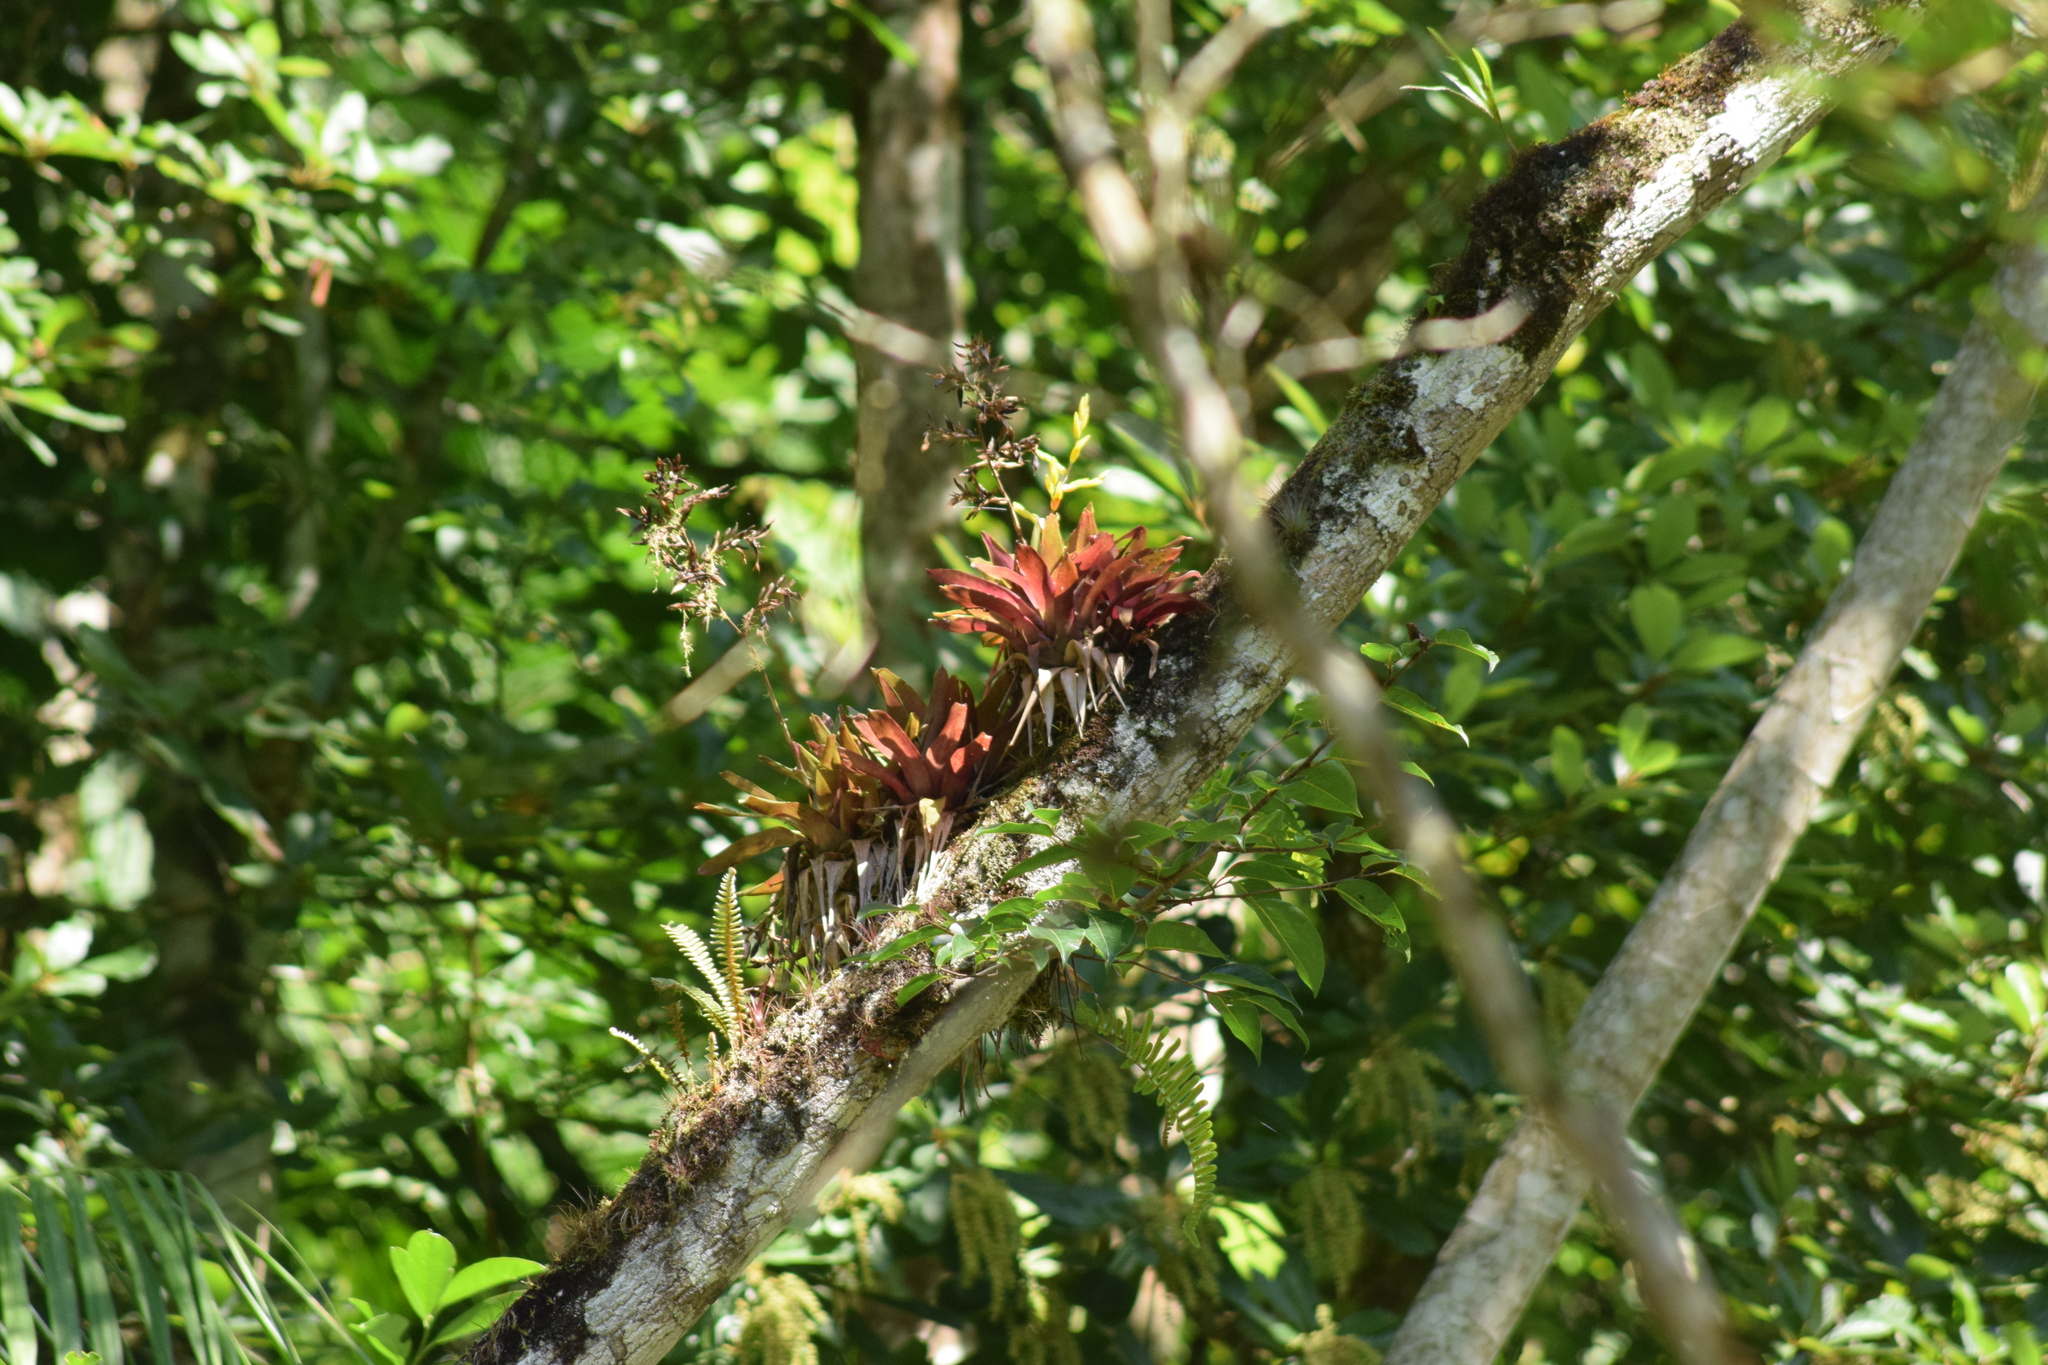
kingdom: Plantae
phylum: Tracheophyta
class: Liliopsida
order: Poales
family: Bromeliaceae
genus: Vriesea
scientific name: Vriesea rodigasiana
